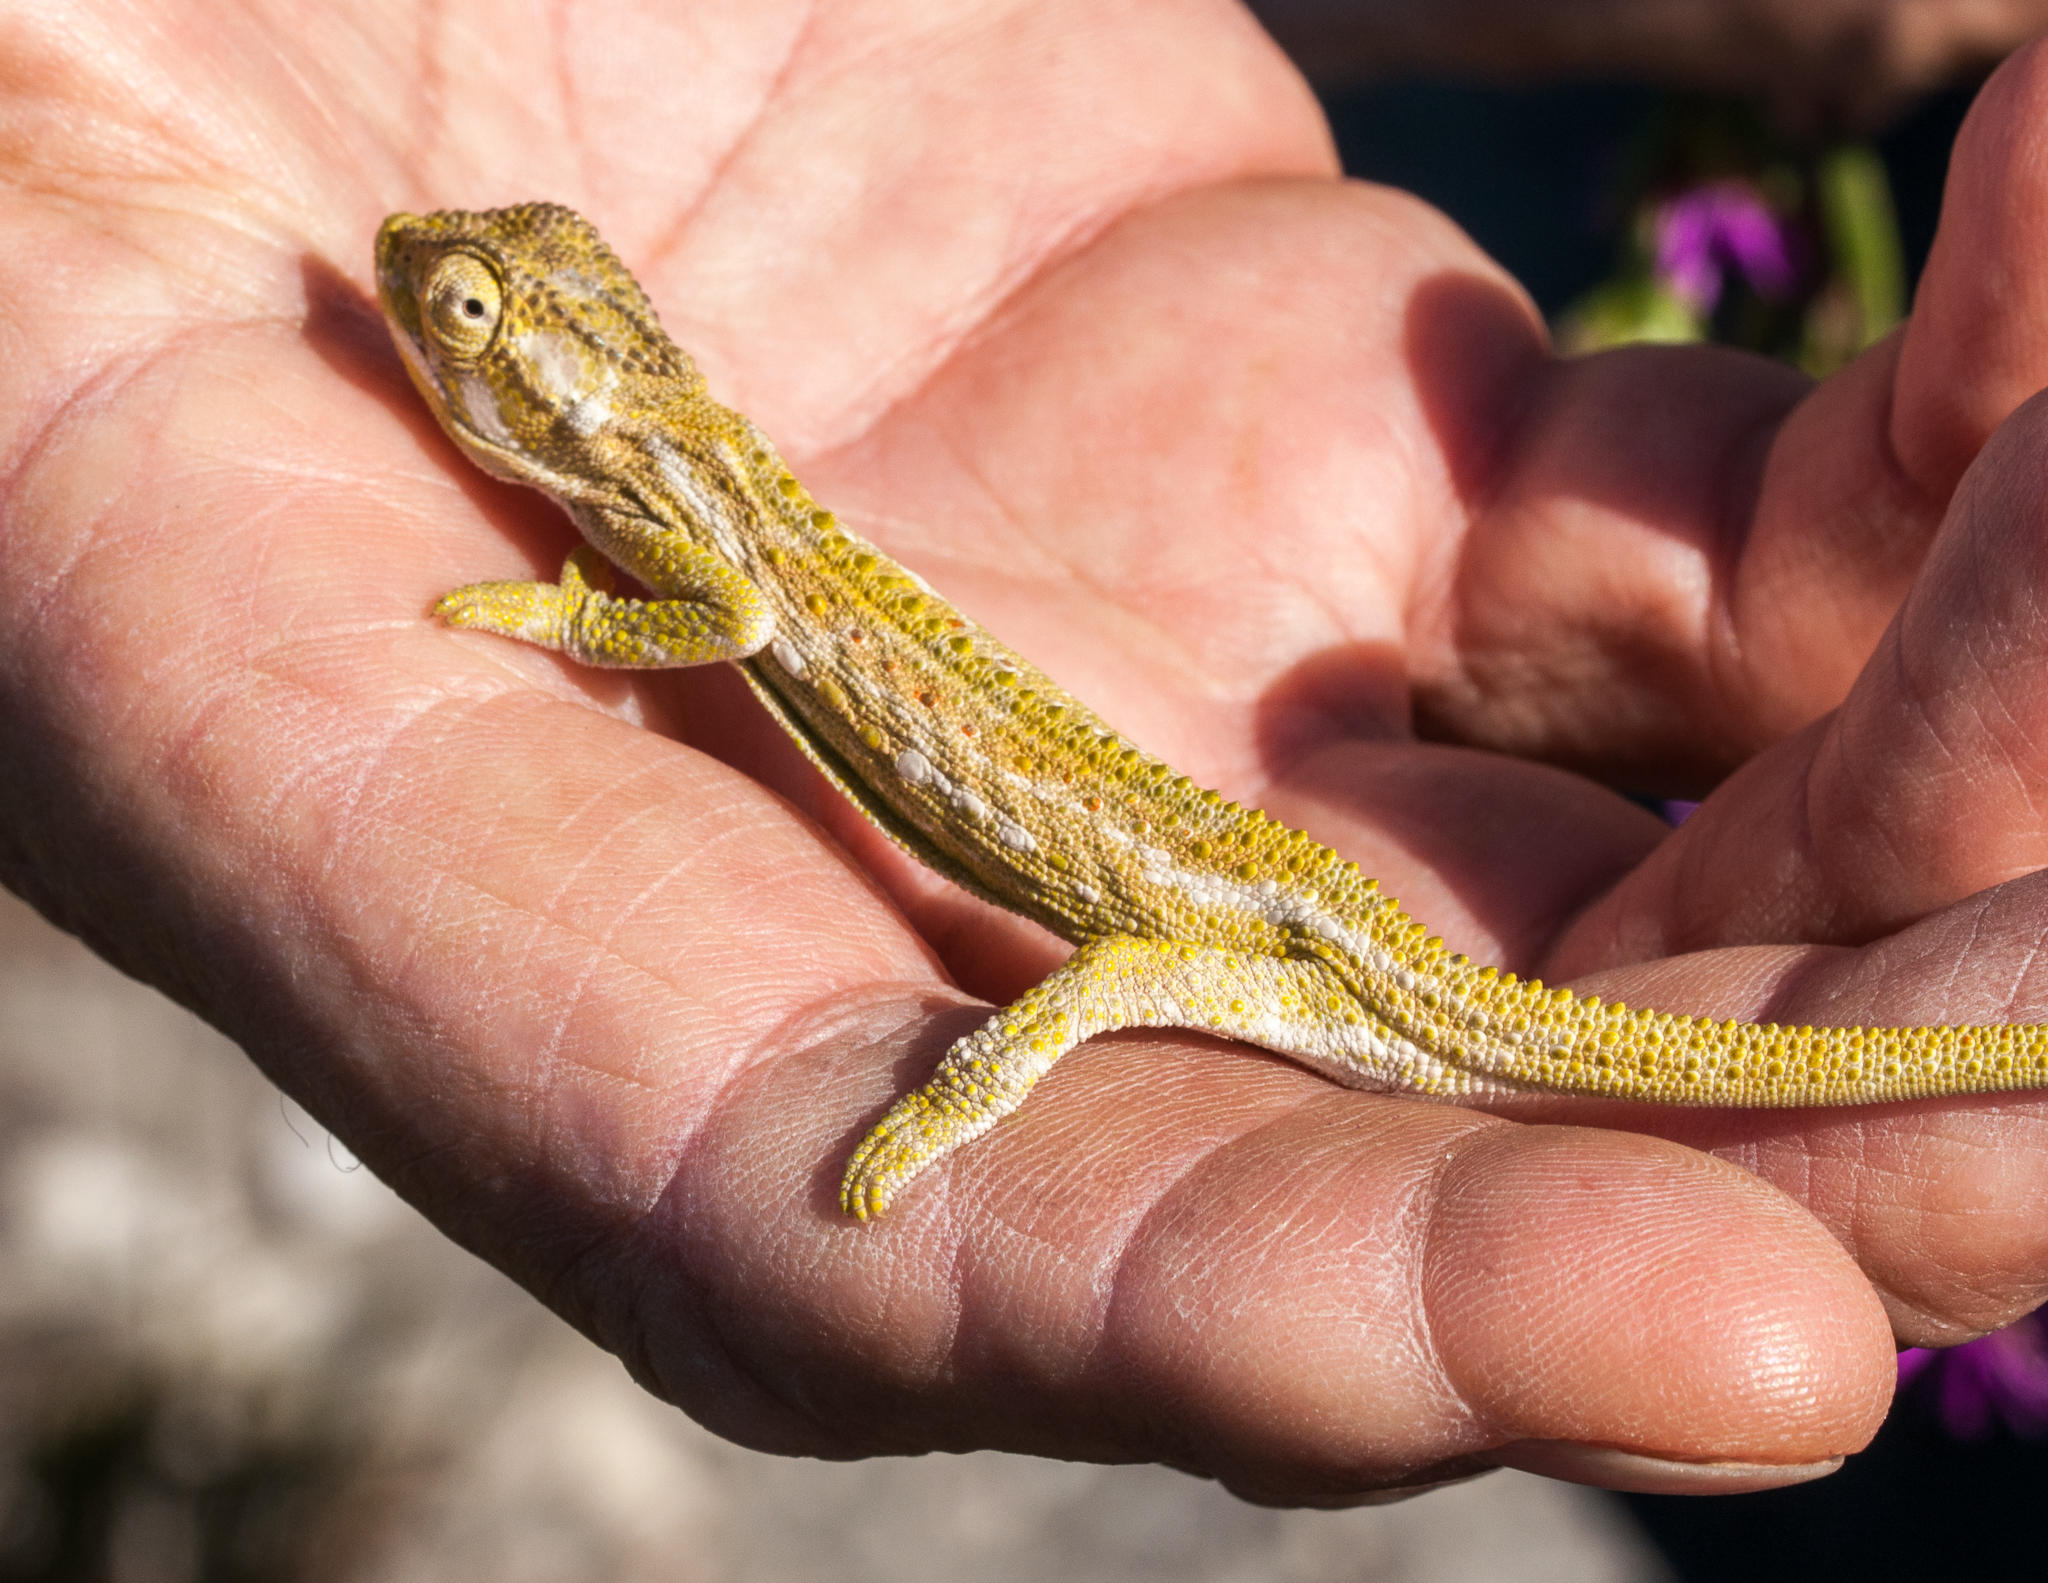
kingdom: Animalia
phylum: Chordata
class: Squamata
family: Chamaeleonidae
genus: Bradypodion
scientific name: Bradypodion pumilum
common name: Cape dwarf chameleon
